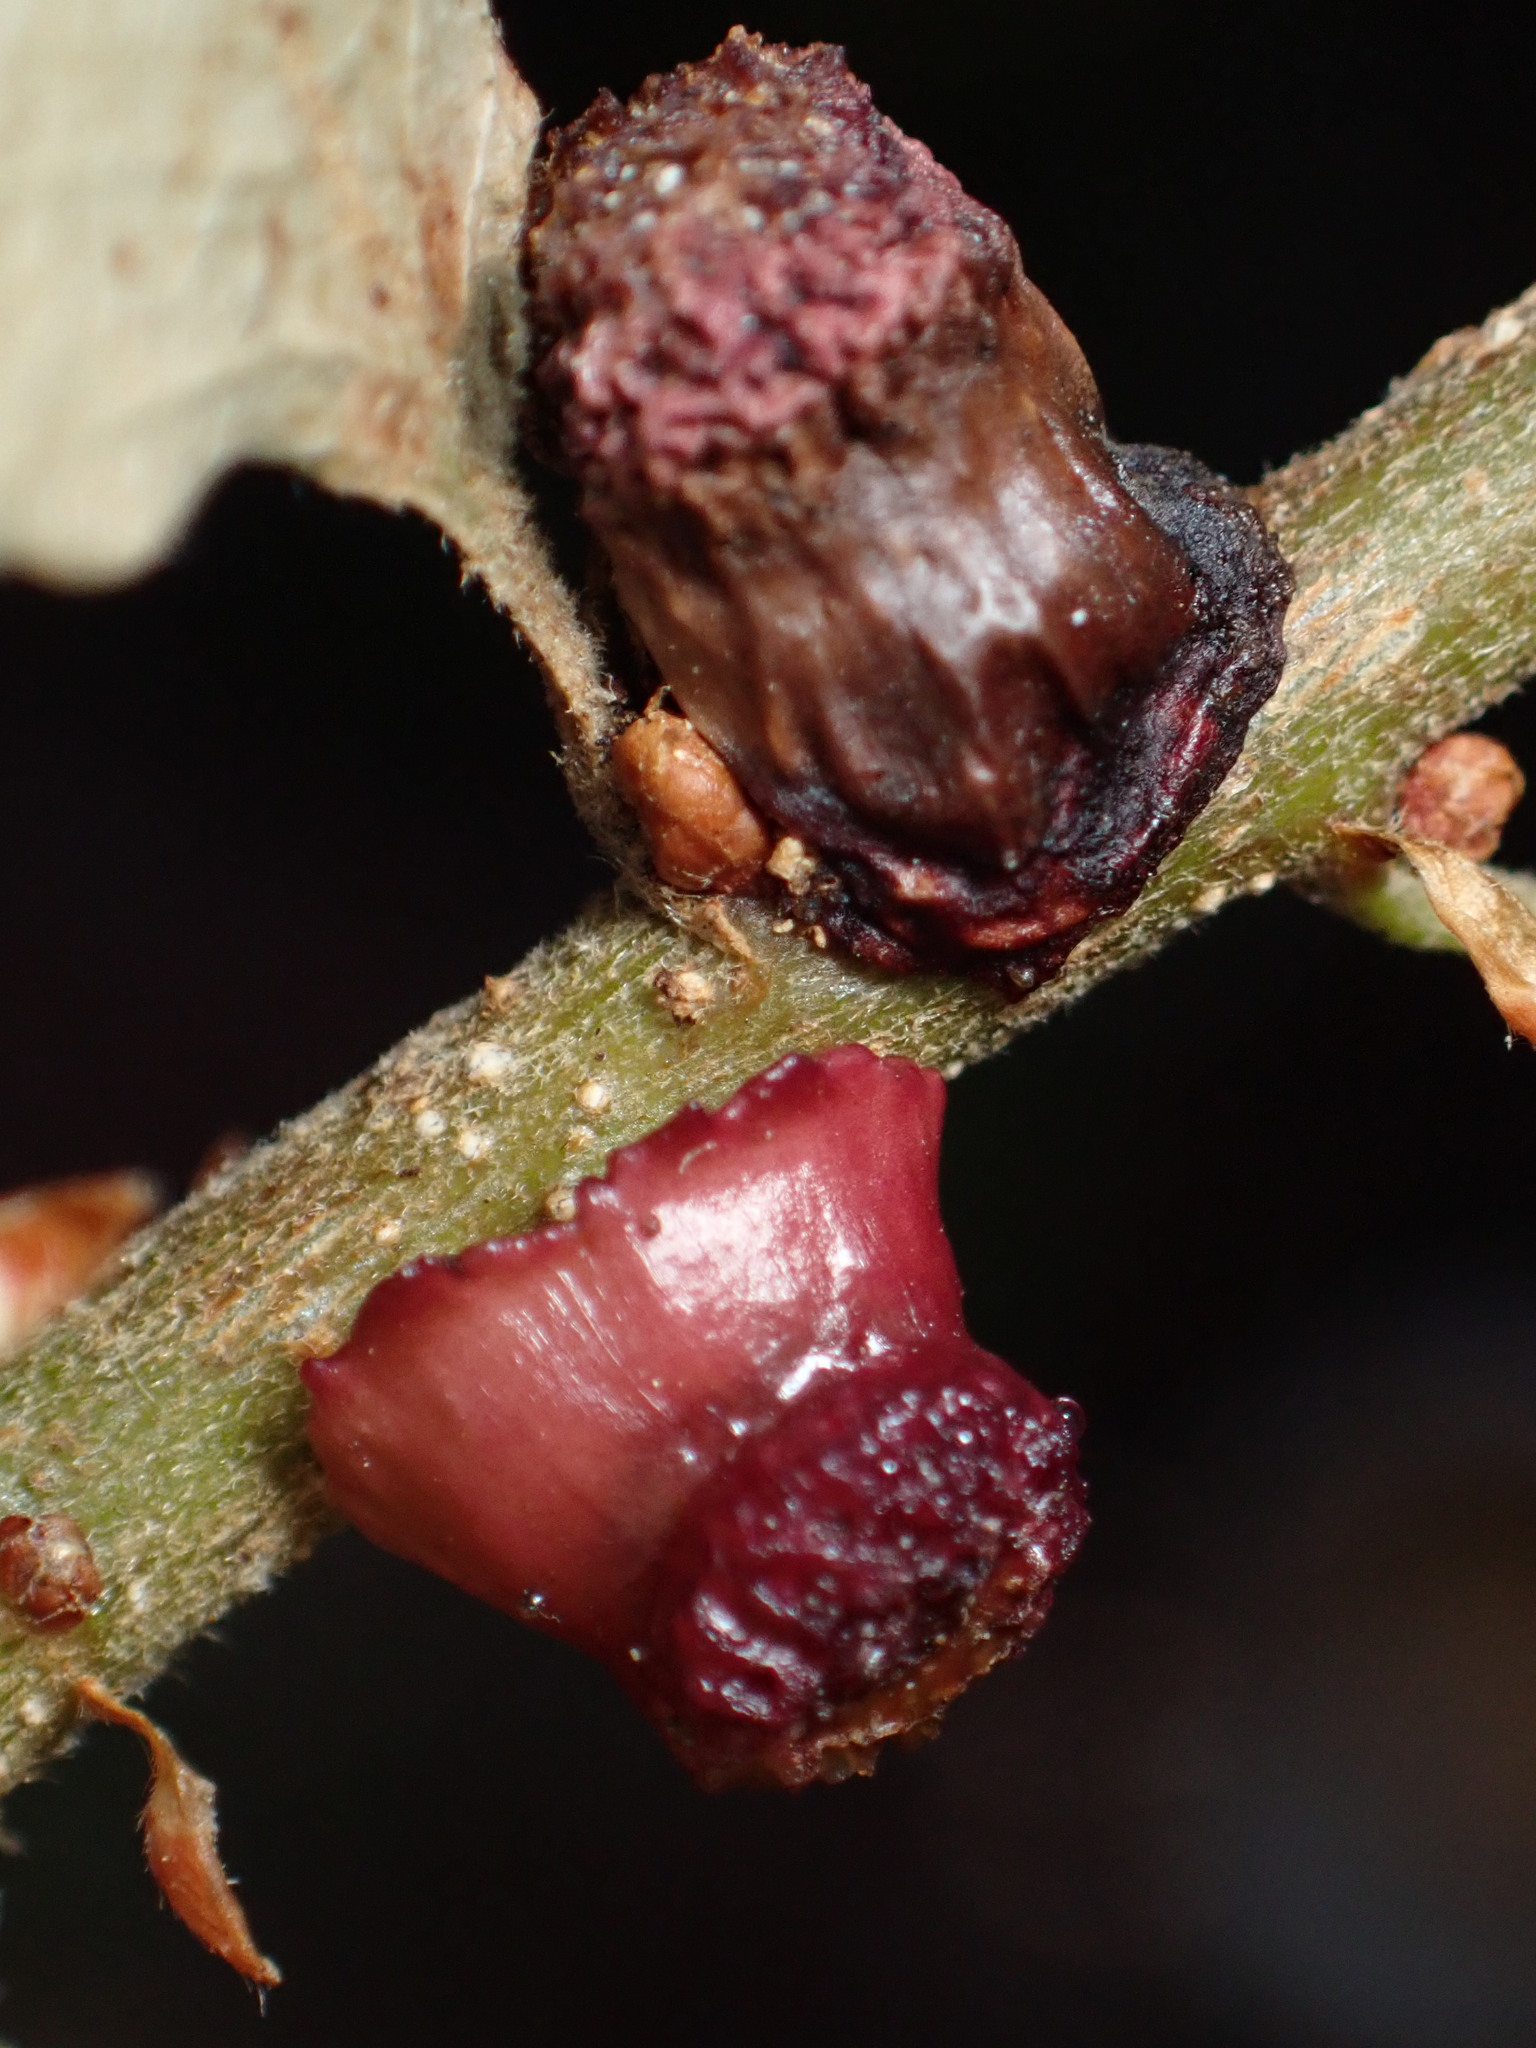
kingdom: Animalia
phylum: Arthropoda
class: Insecta
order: Hymenoptera
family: Cynipidae
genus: Disholcaspis
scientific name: Disholcaspis prehensa
